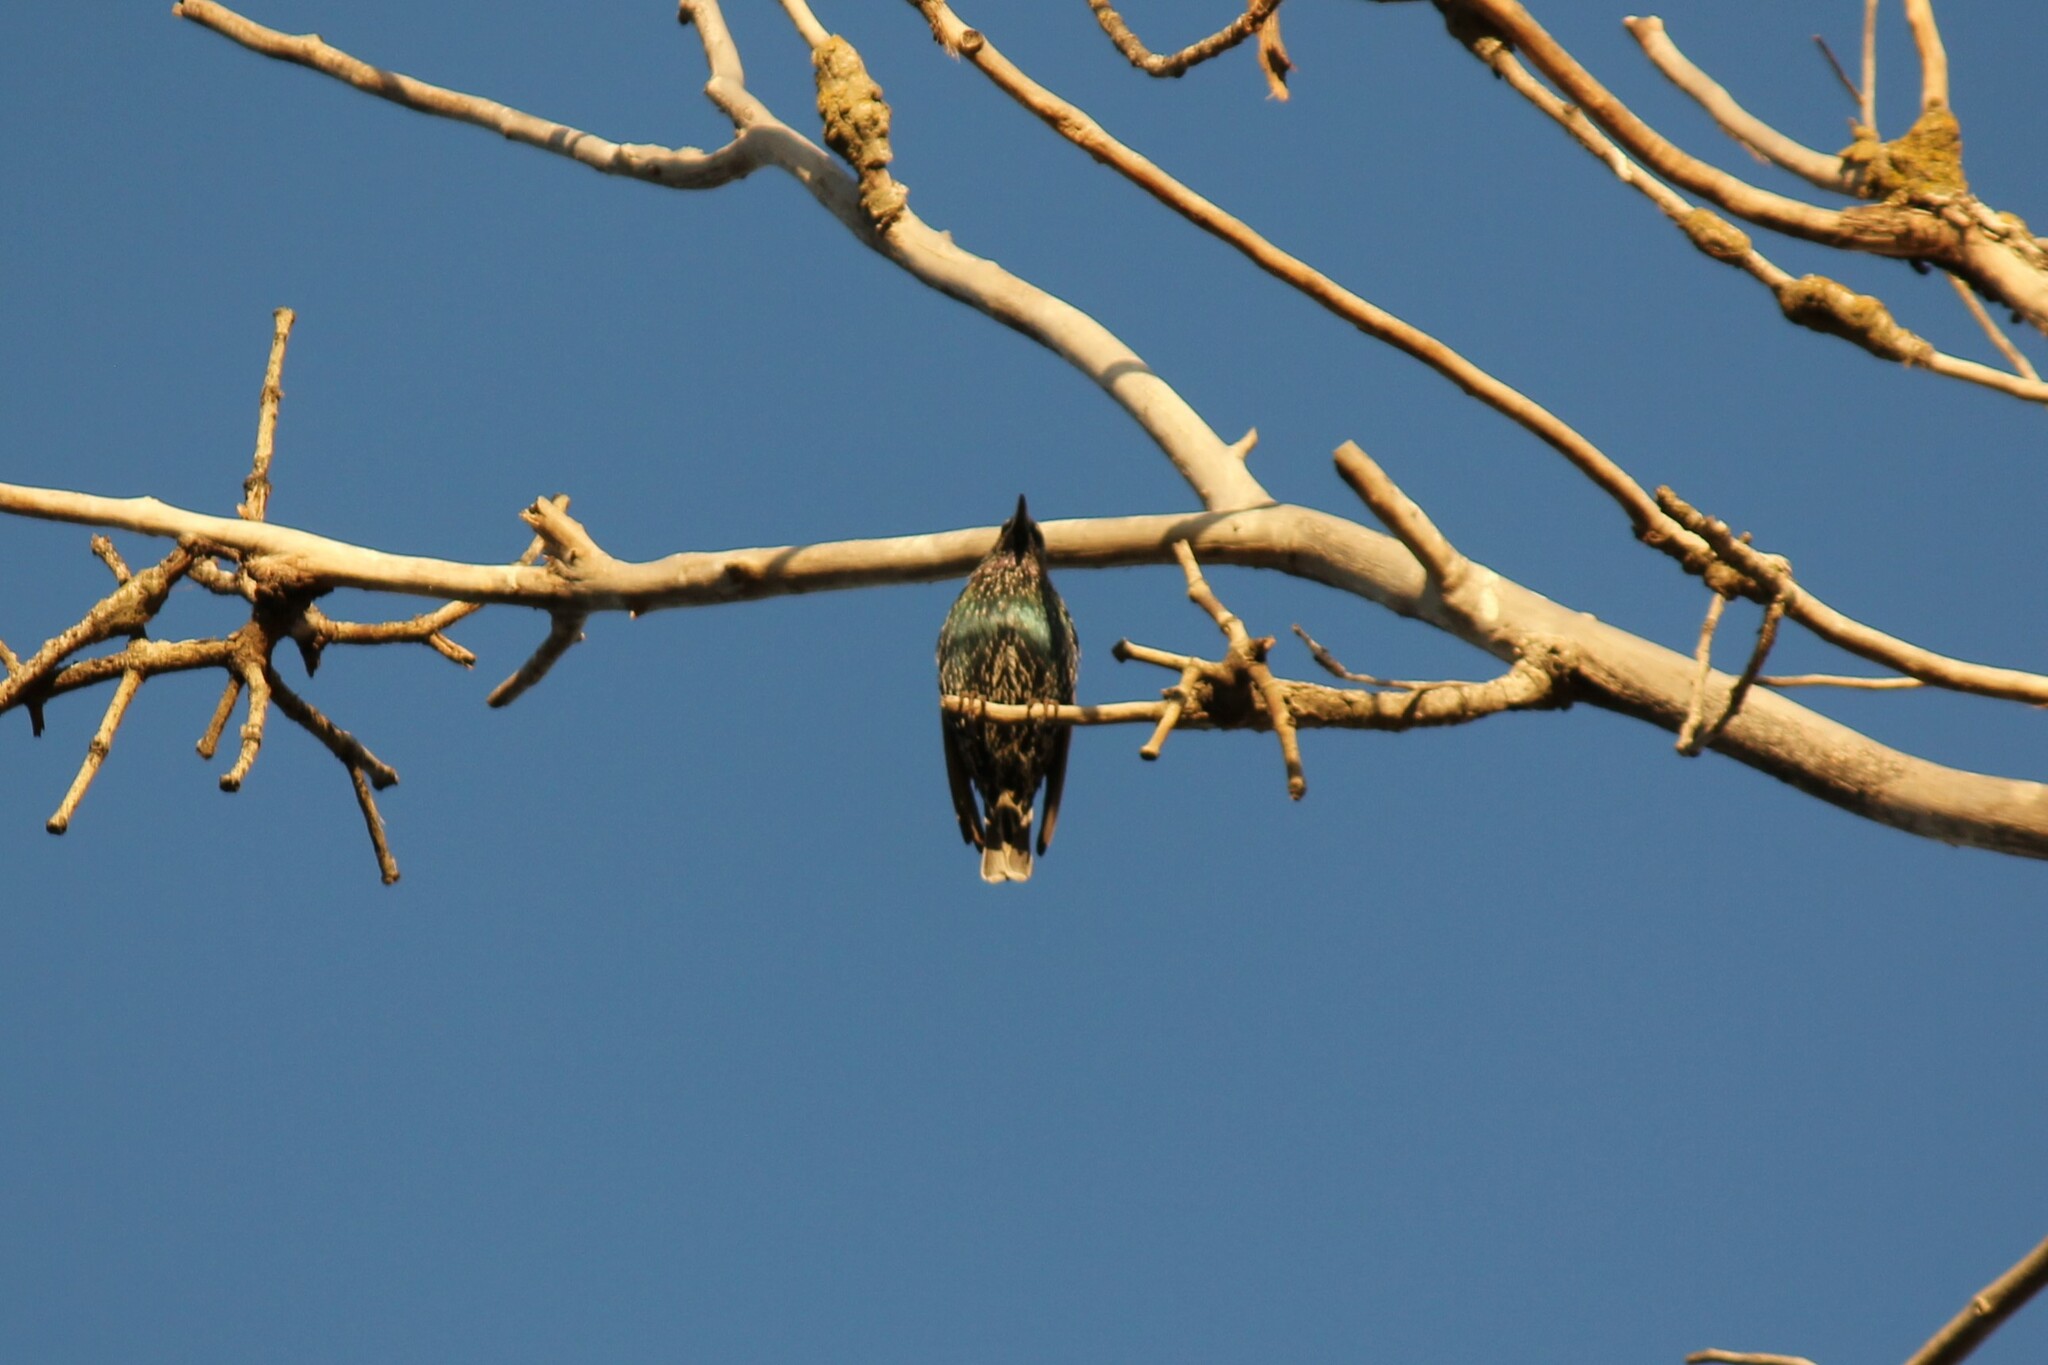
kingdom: Animalia
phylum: Chordata
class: Aves
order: Passeriformes
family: Sturnidae
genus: Sturnus
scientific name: Sturnus vulgaris
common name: Common starling
